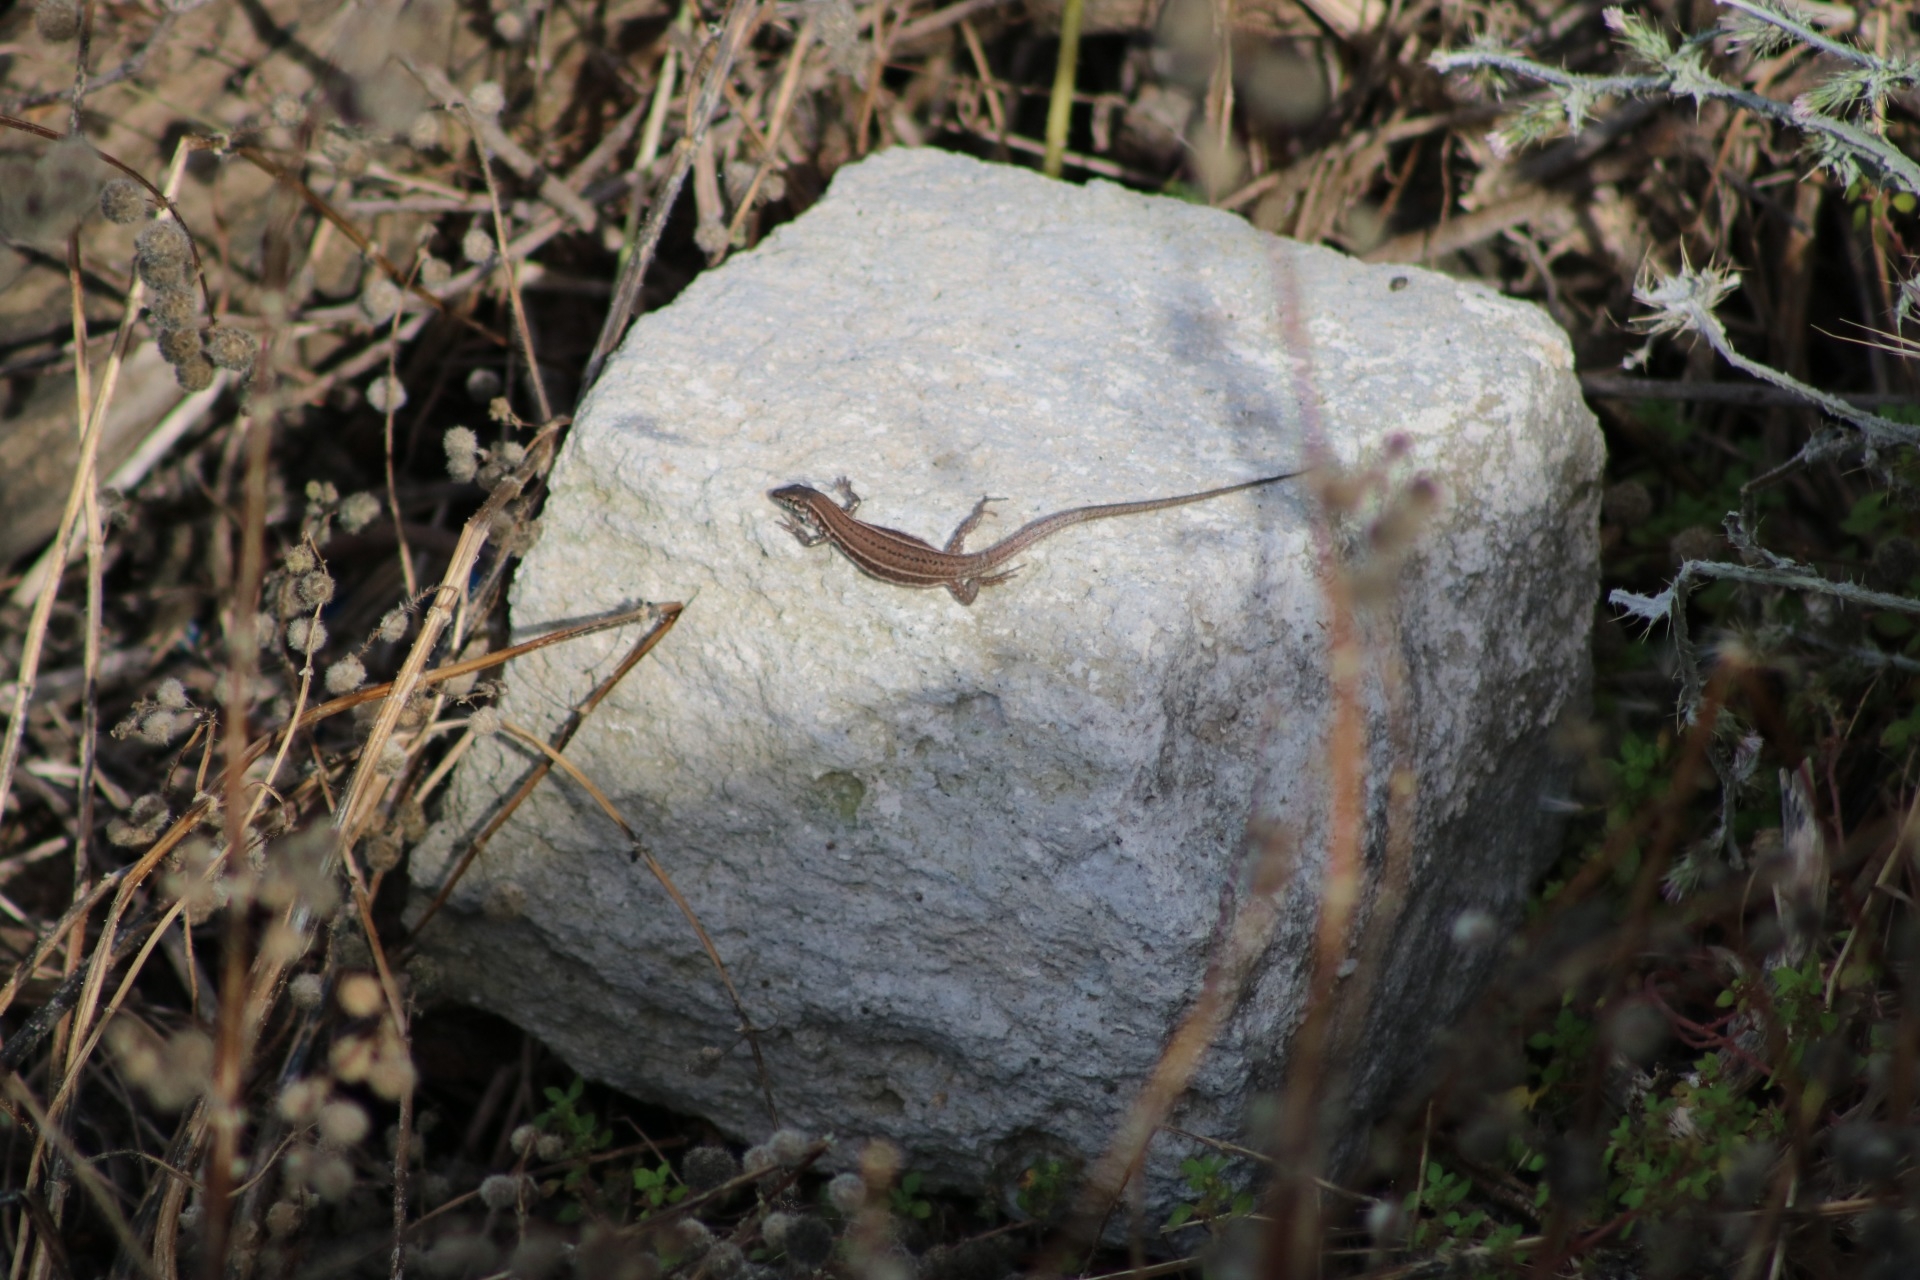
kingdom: Animalia
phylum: Chordata
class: Squamata
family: Lacertidae
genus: Podarcis
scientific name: Podarcis milensis
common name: Milos wall lizard
